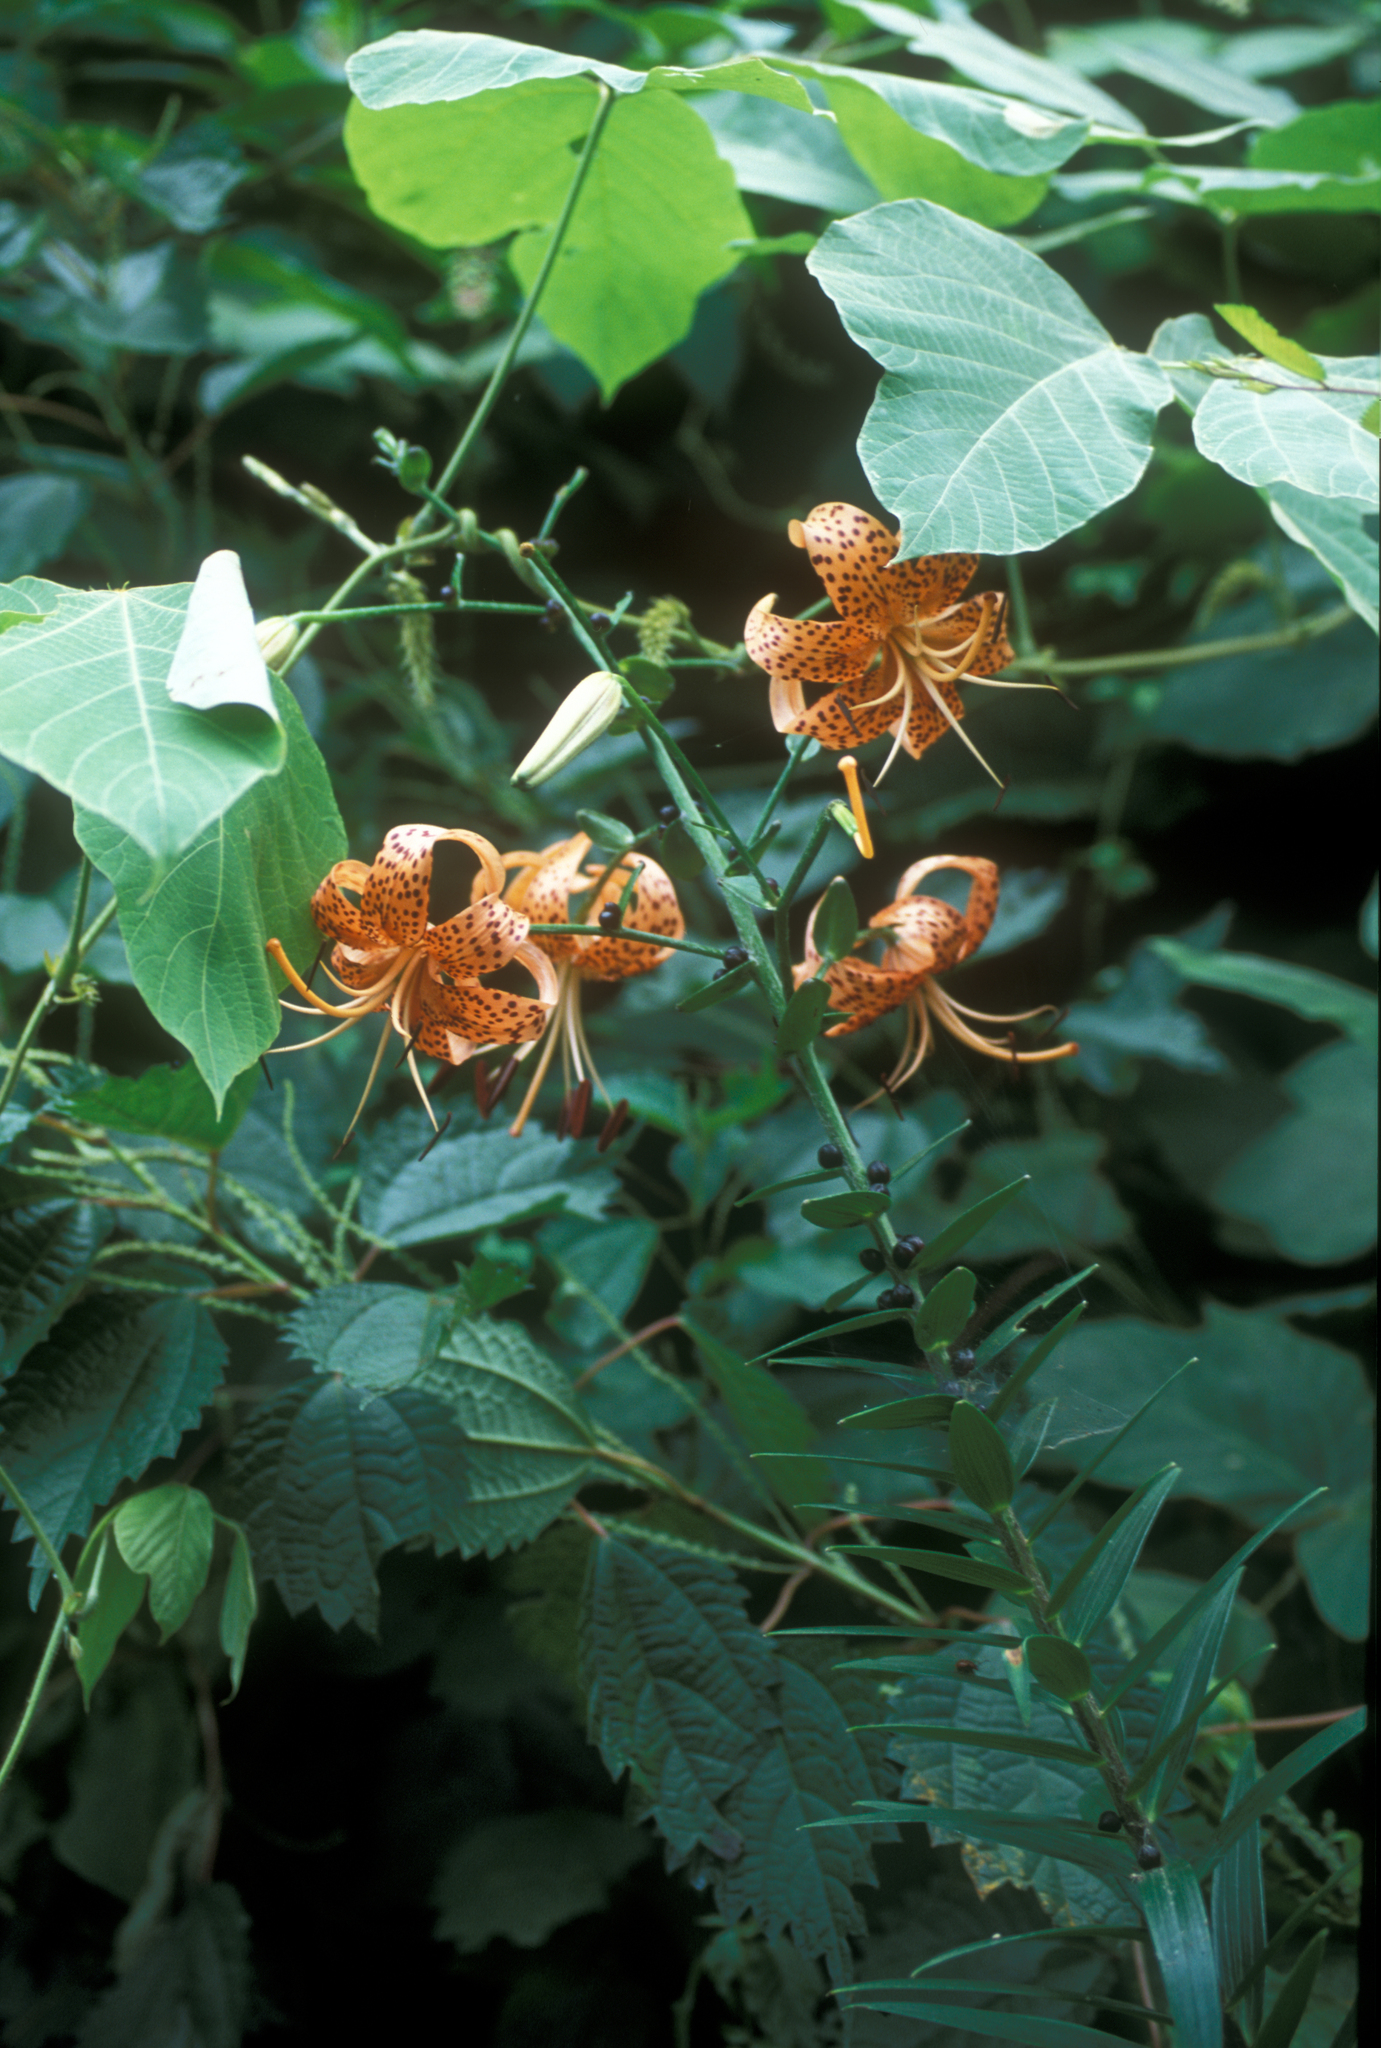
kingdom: Plantae
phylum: Tracheophyta
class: Liliopsida
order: Liliales
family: Liliaceae
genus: Lilium
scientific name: Lilium lancifolium
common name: Tiger lily
